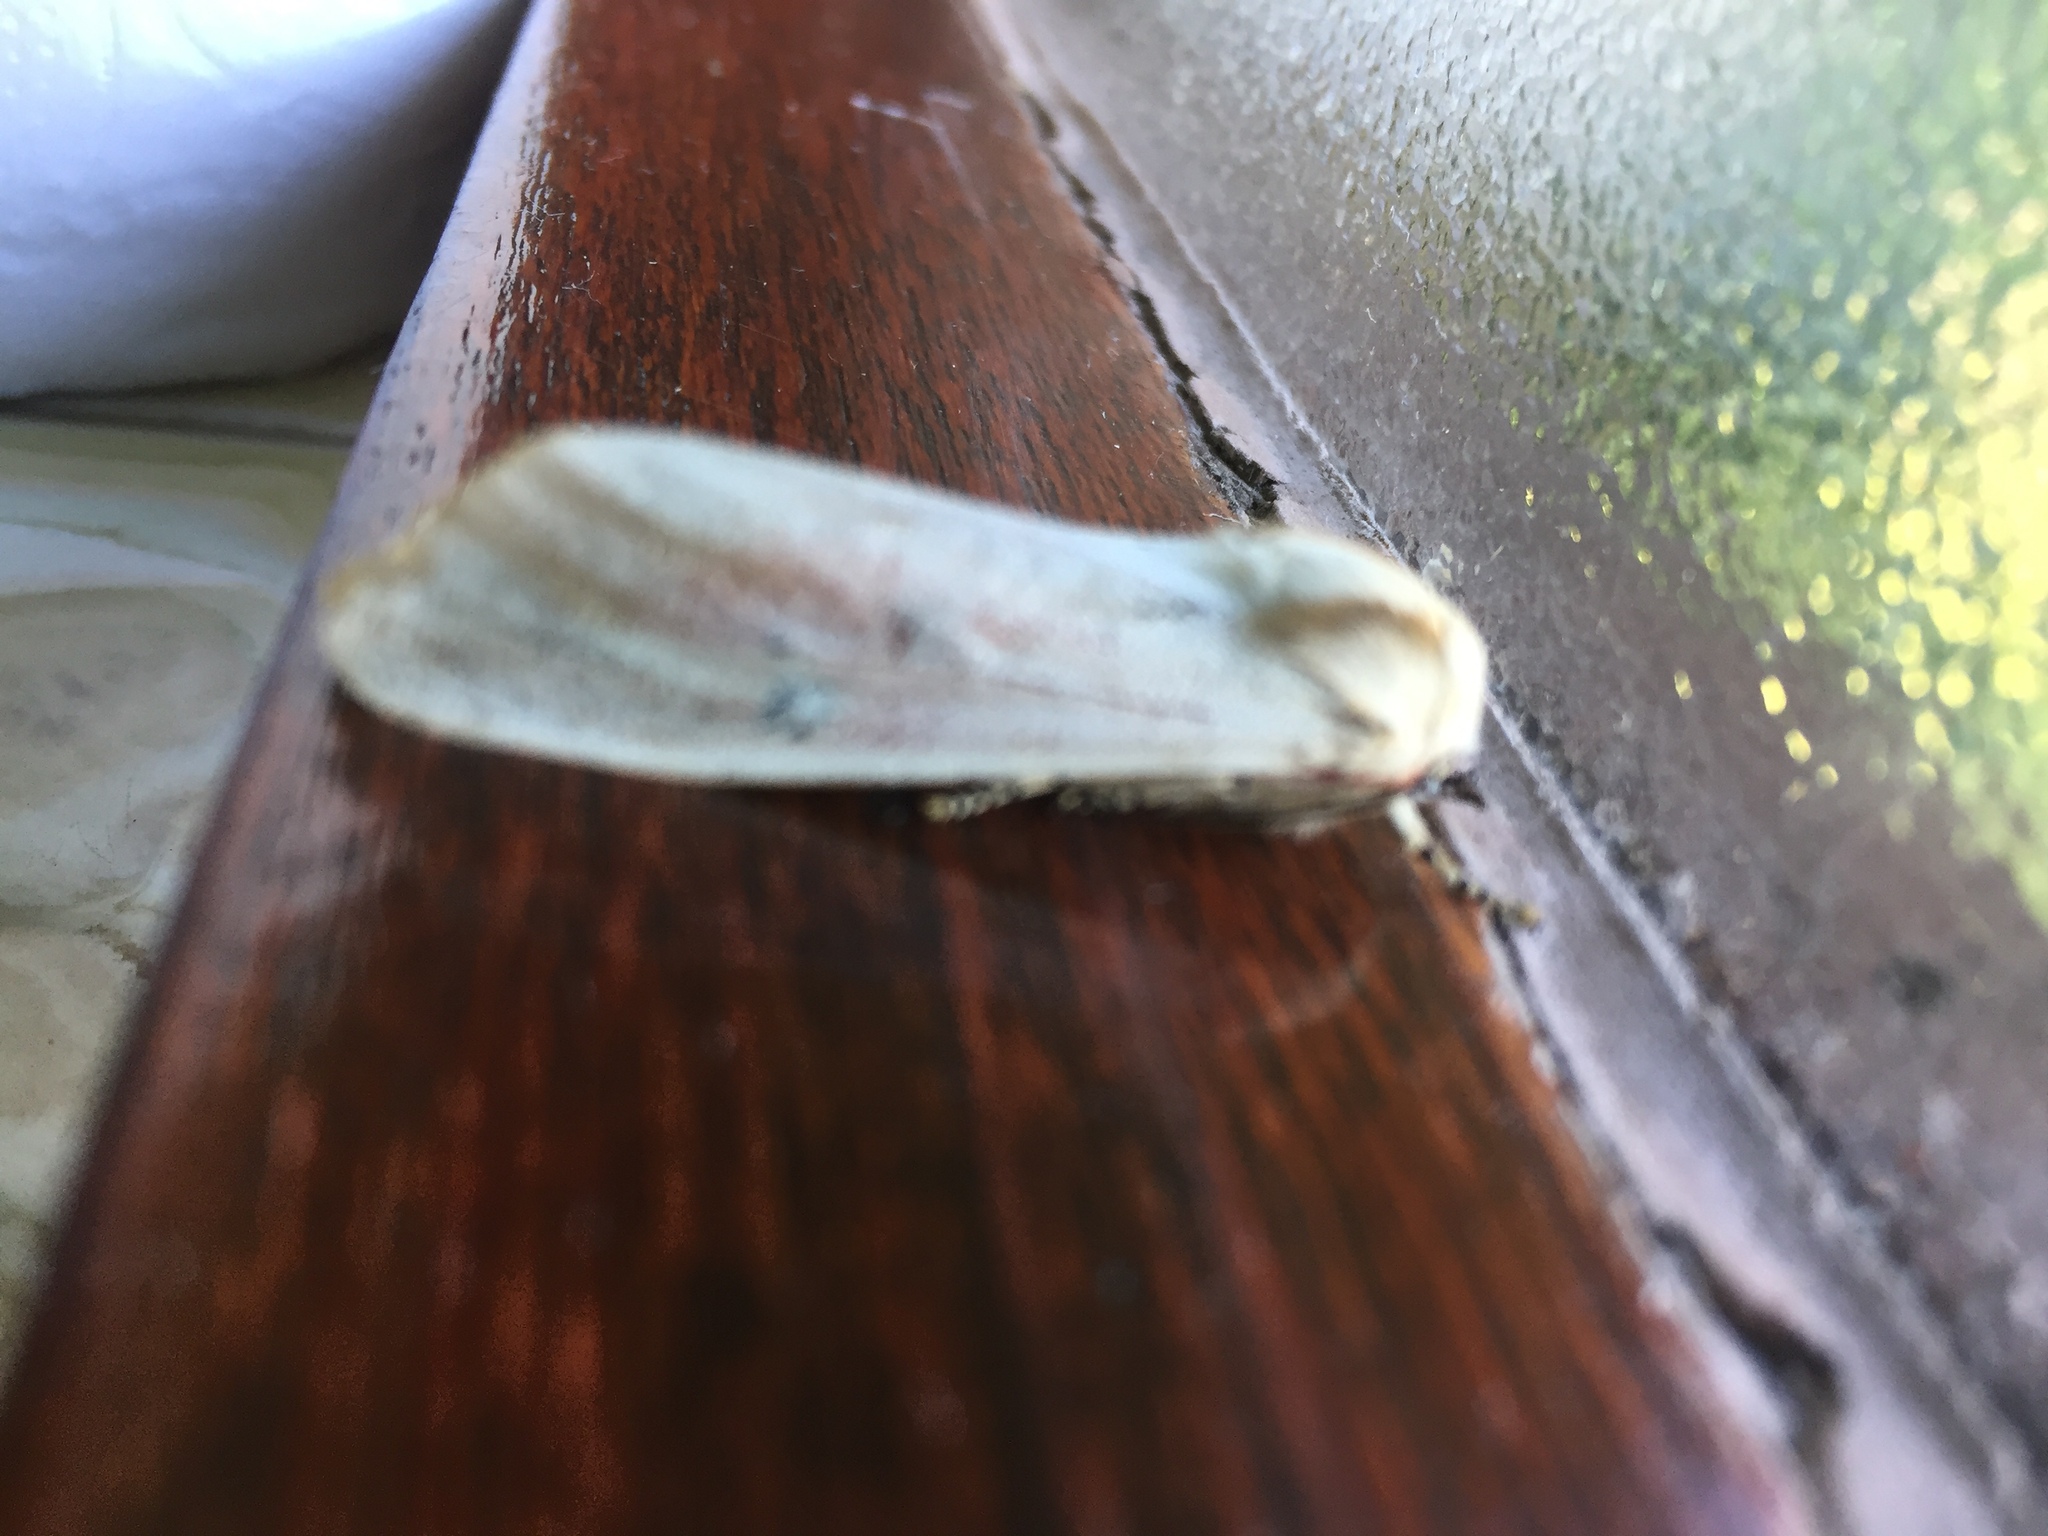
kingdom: Animalia
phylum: Arthropoda
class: Insecta
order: Lepidoptera
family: Erebidae
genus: Rhodogastria
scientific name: Rhodogastria amasis
